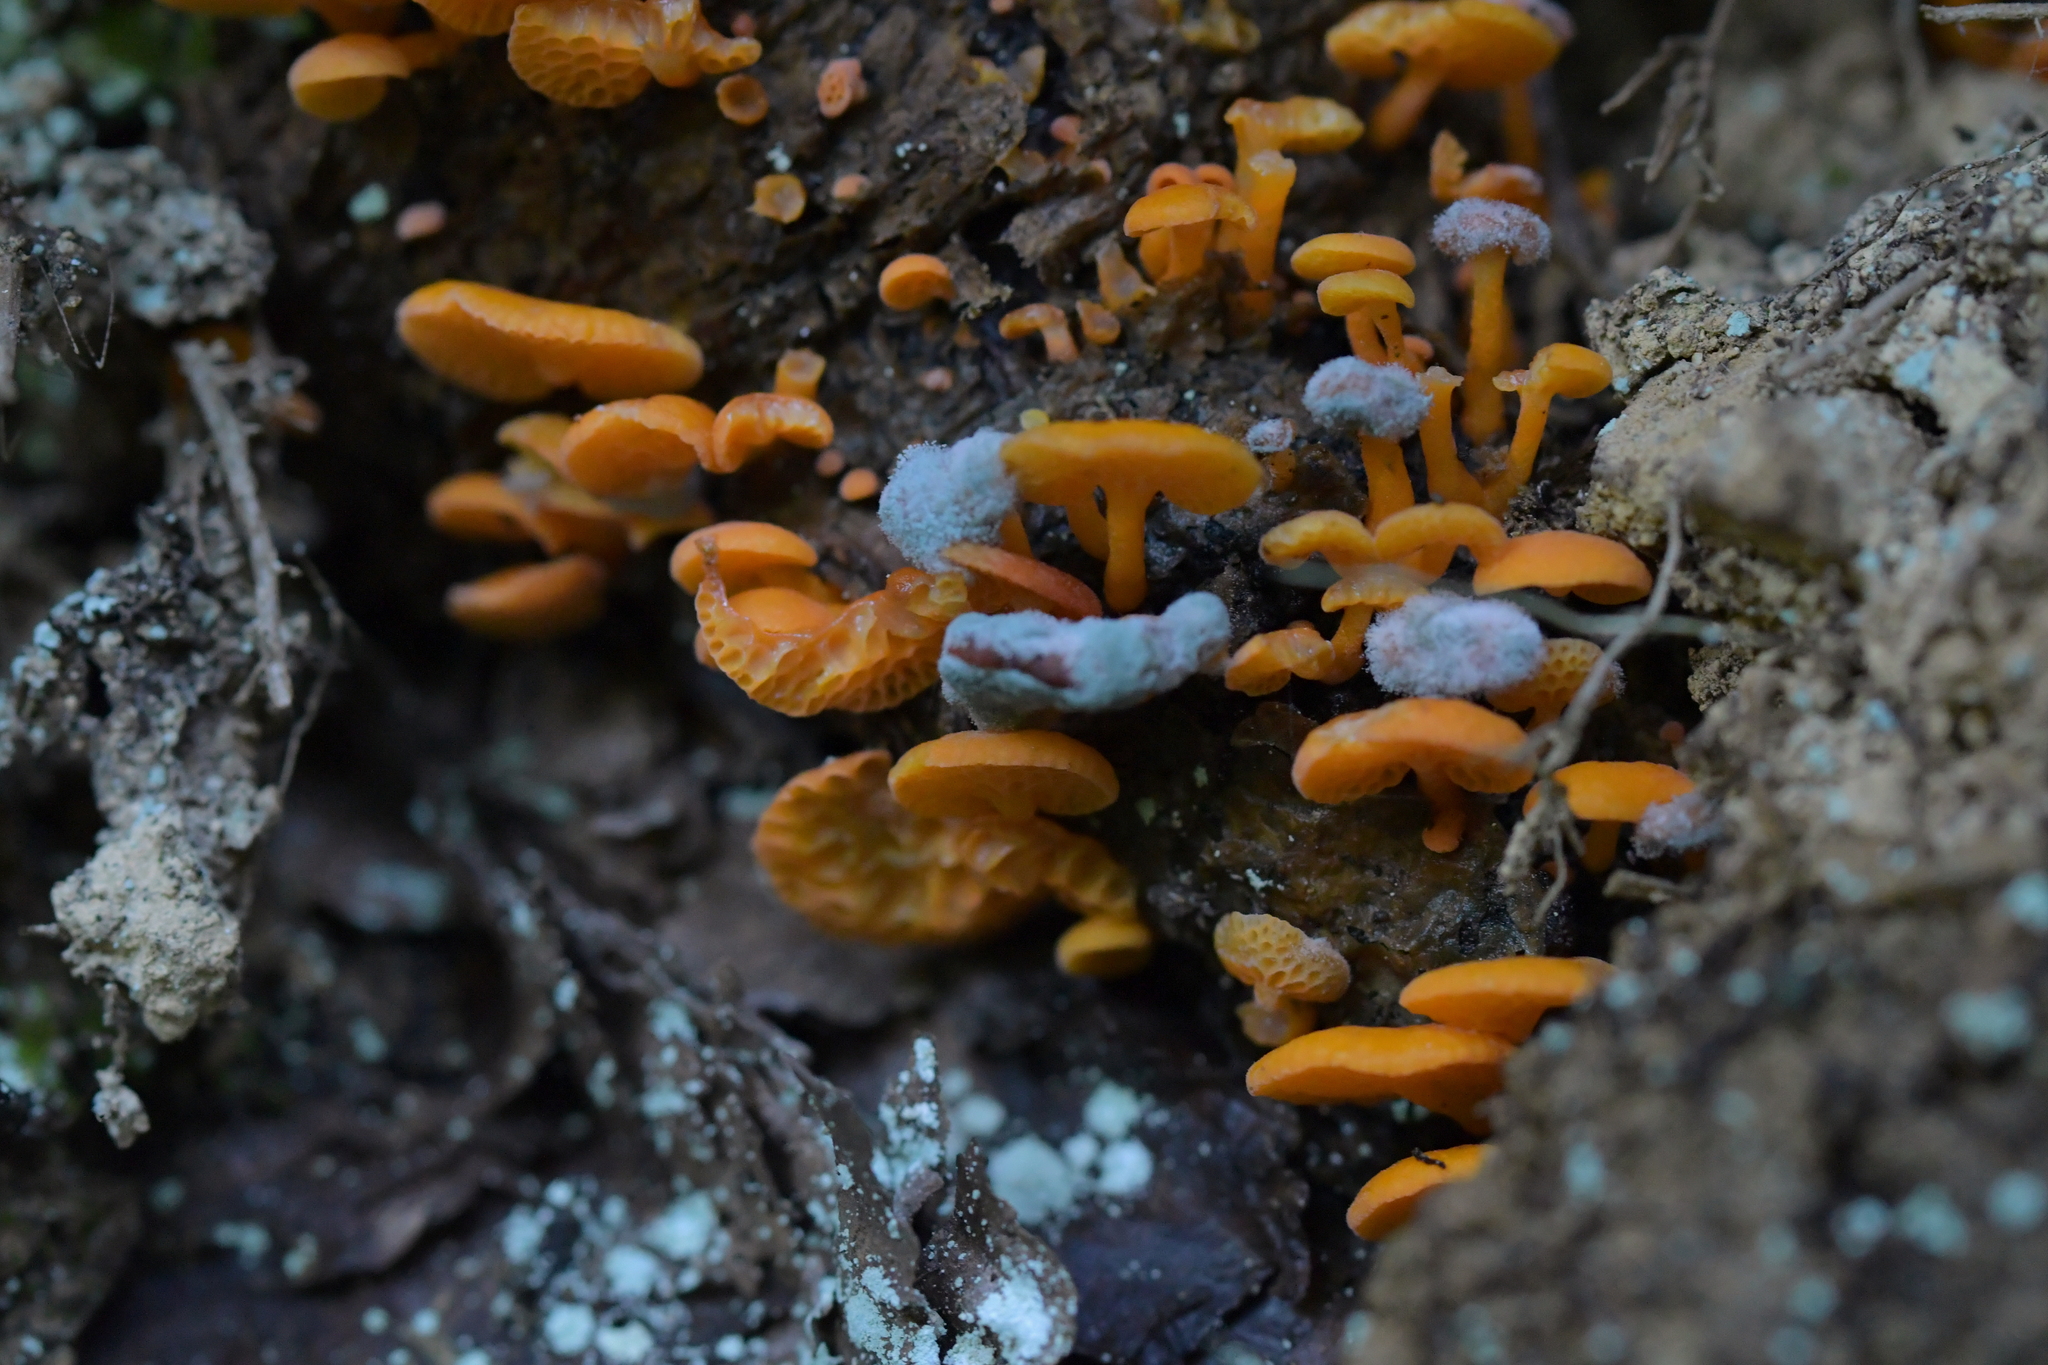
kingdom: Fungi
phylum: Basidiomycota
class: Agaricomycetes
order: Agaricales
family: Mycenaceae
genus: Favolaschia
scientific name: Favolaschia claudopus
